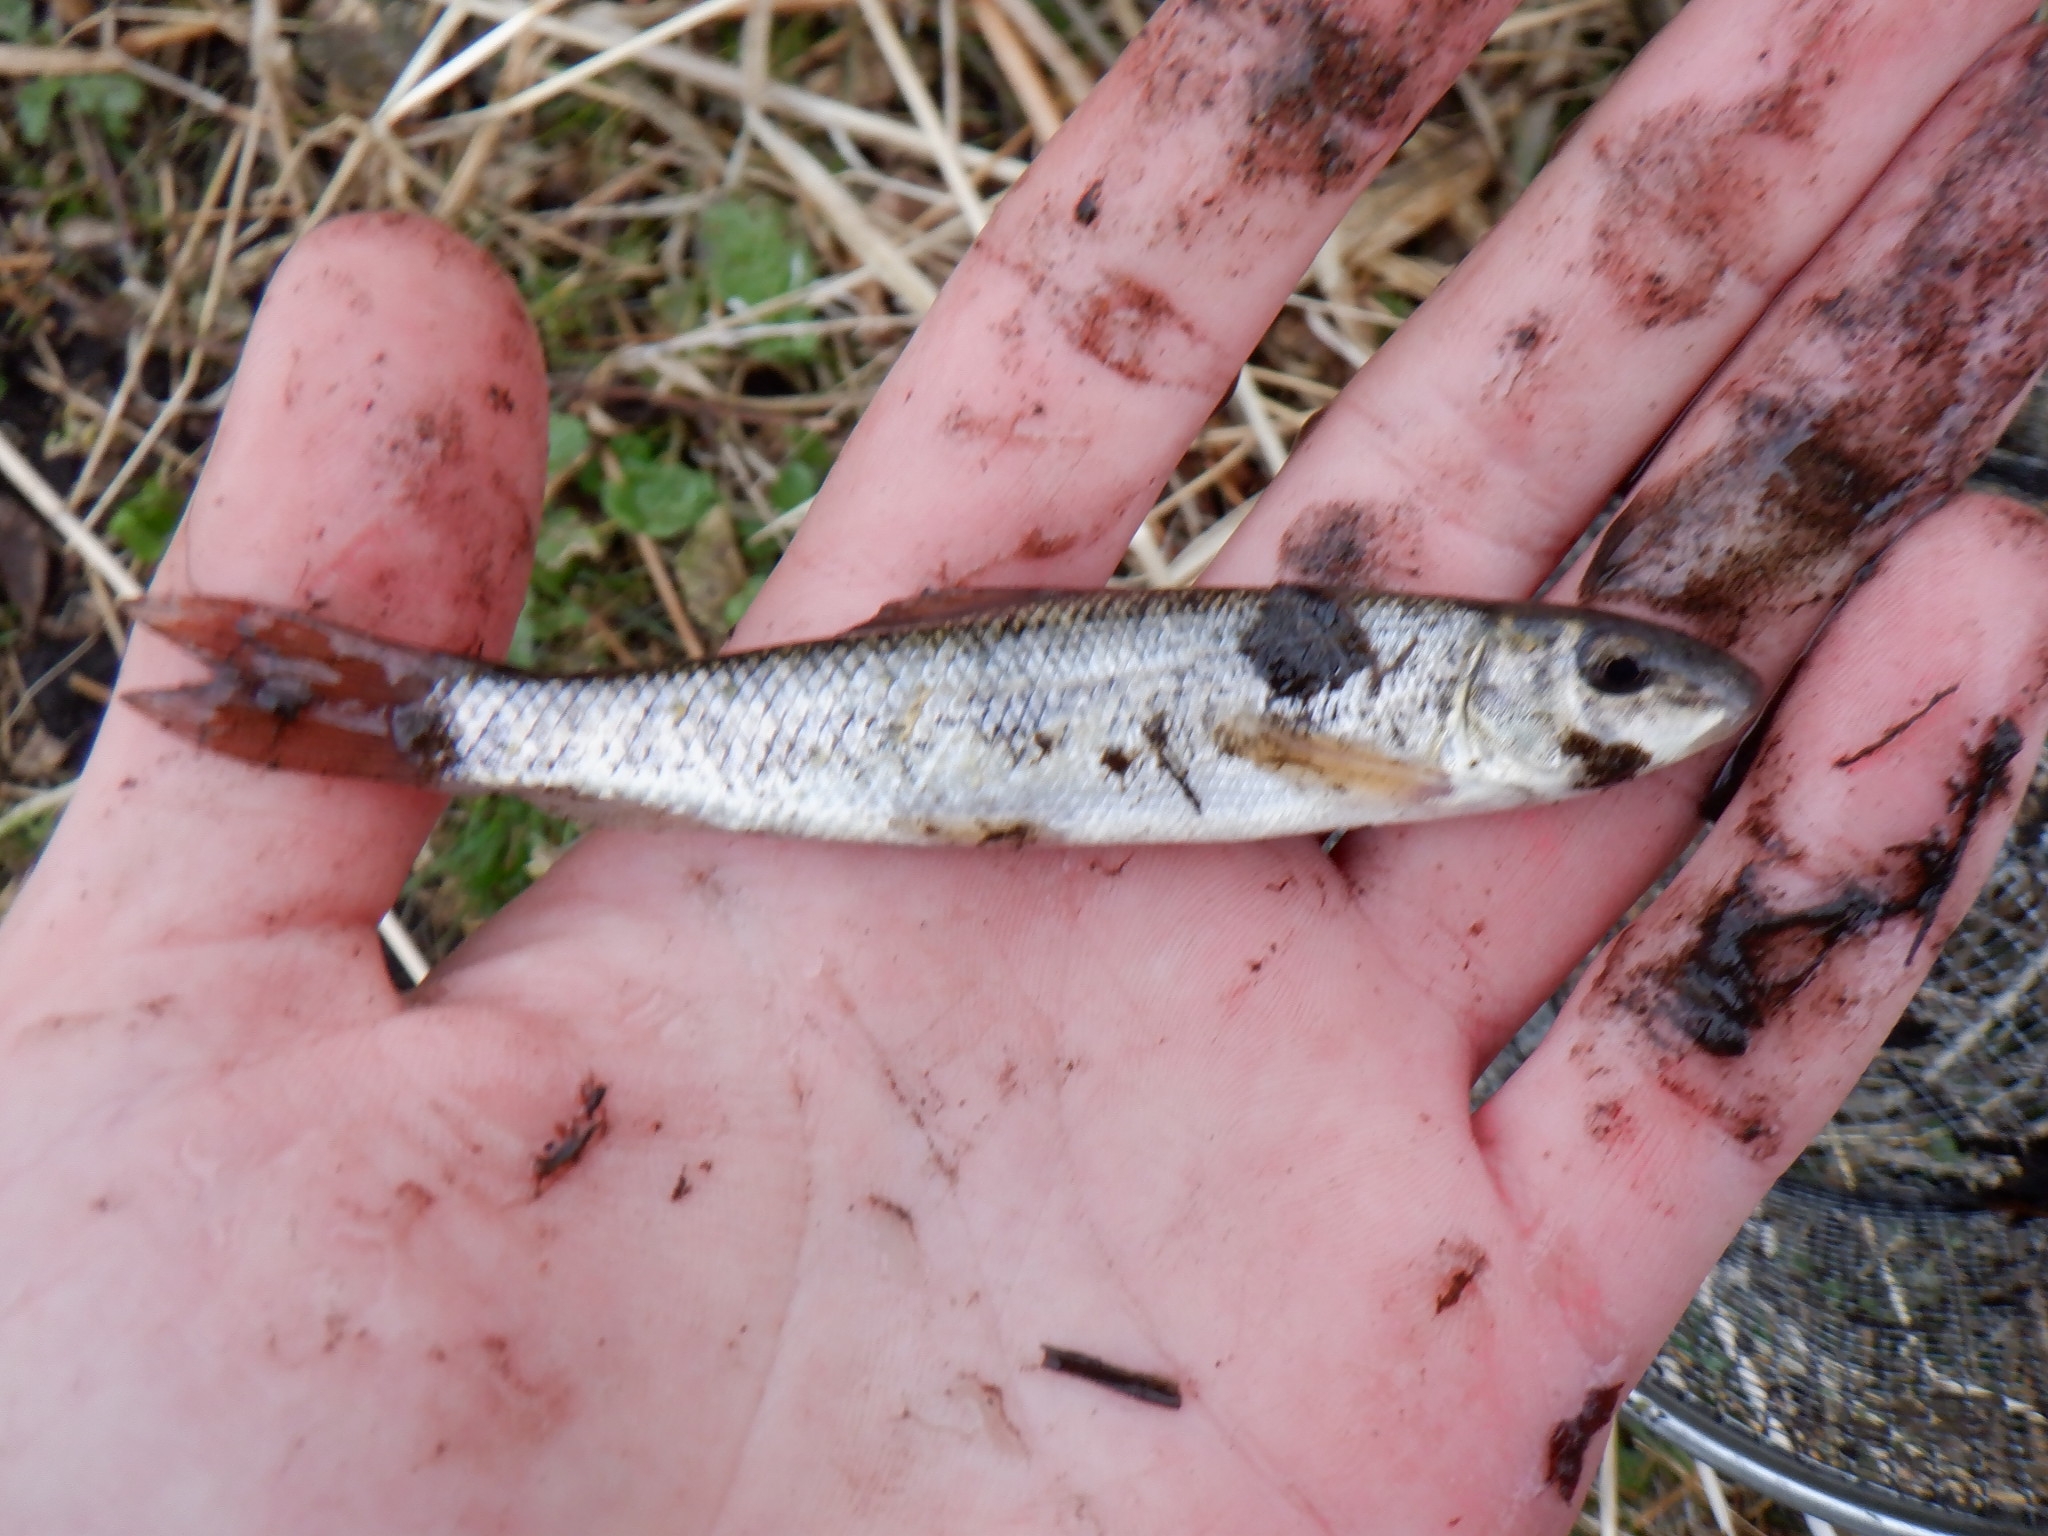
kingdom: Animalia
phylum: Chordata
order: Cypriniformes
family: Catostomidae
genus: Catostomus
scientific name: Catostomus commersonii
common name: White sucker
